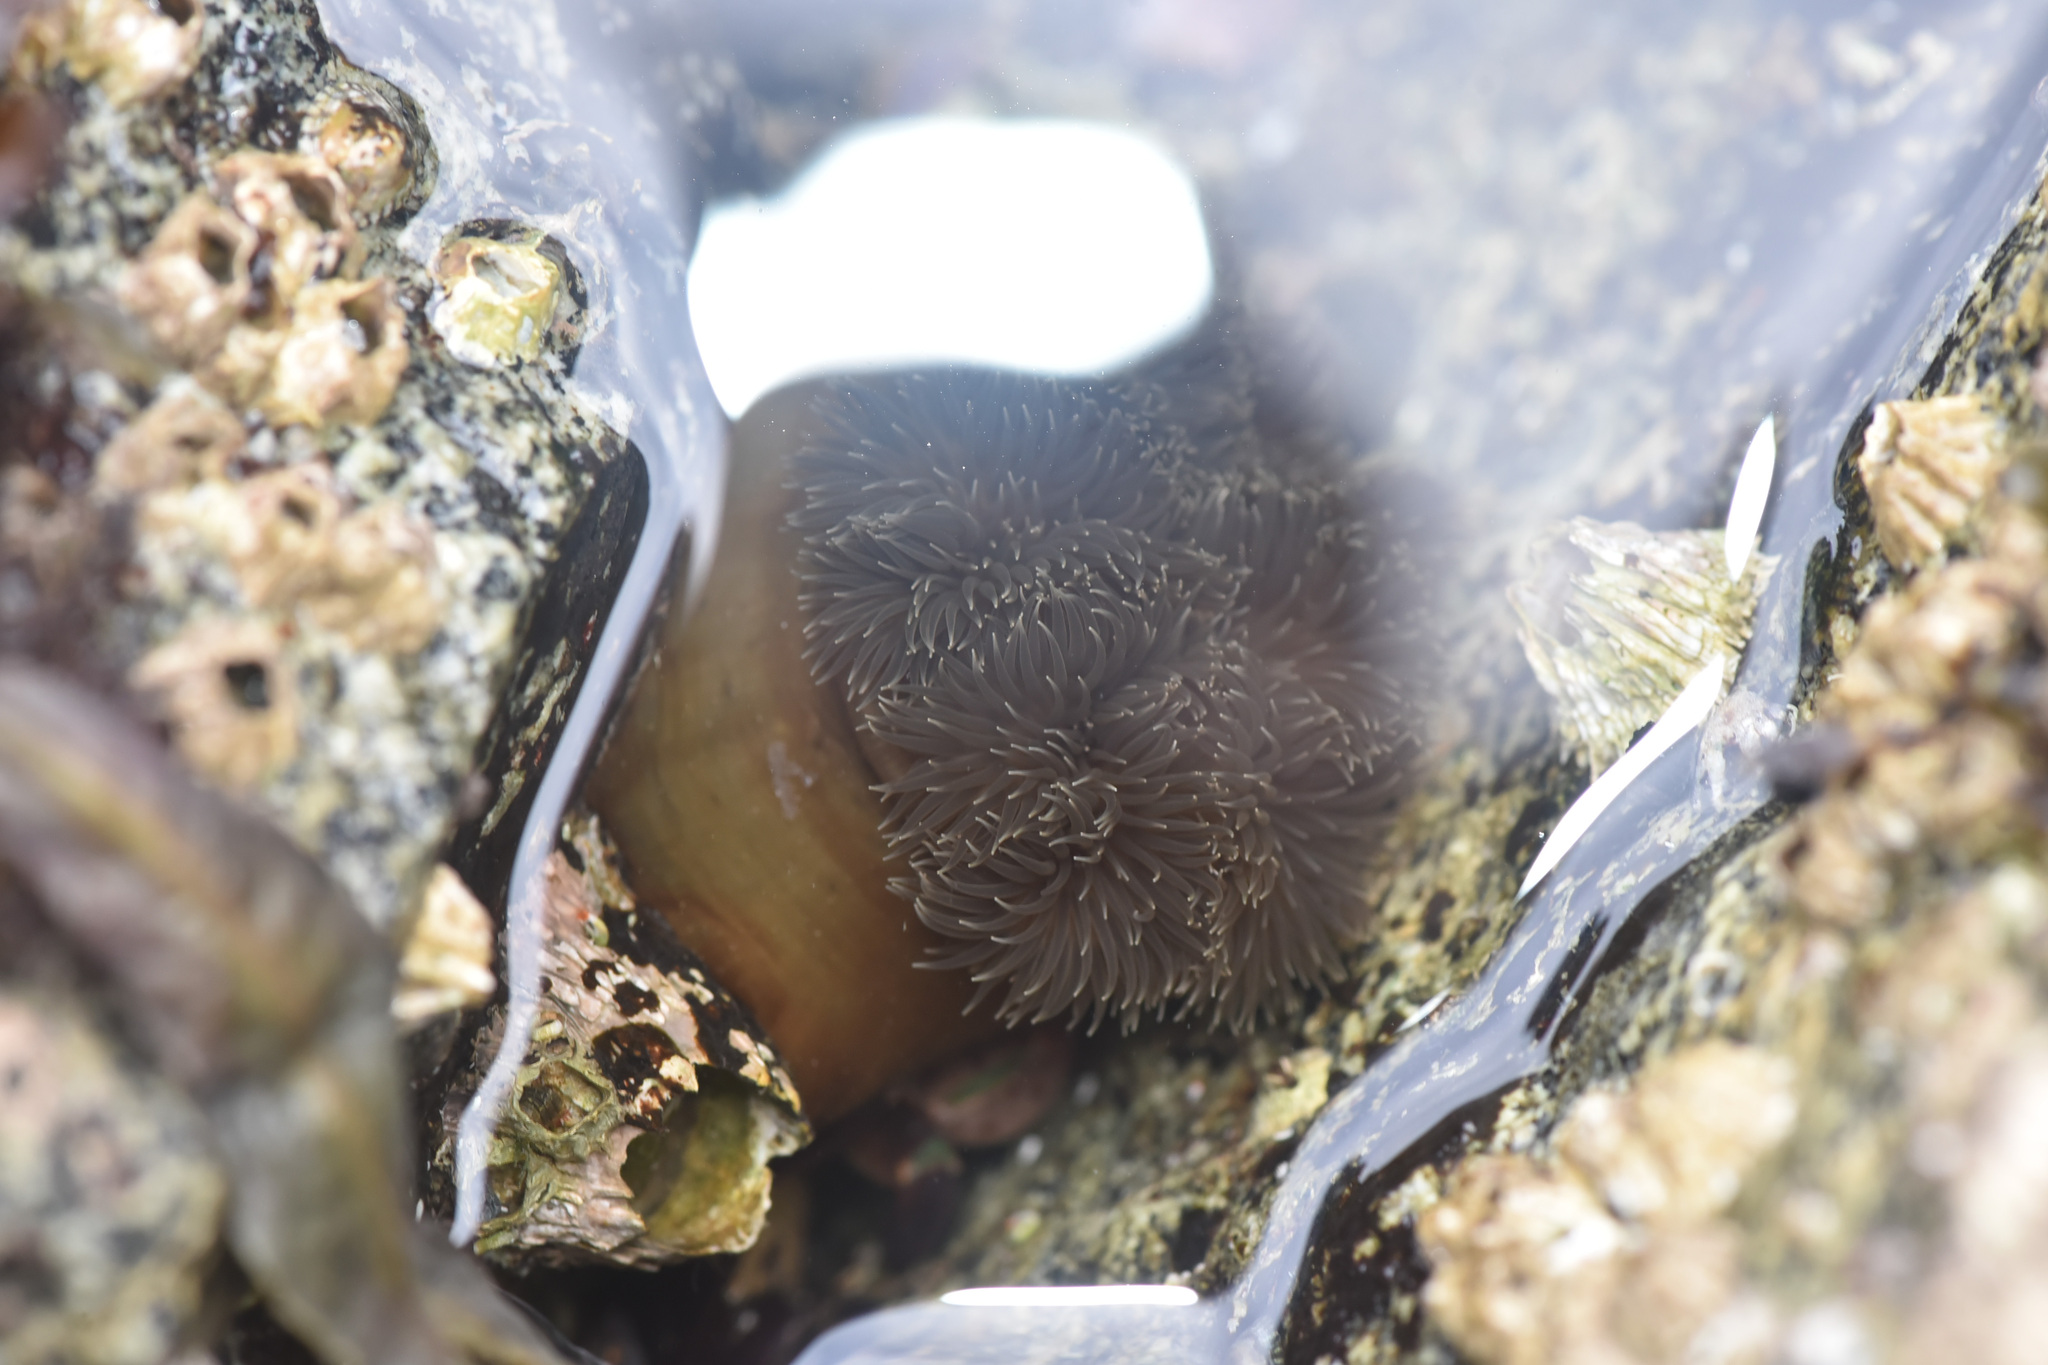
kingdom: Animalia
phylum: Cnidaria
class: Anthozoa
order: Actiniaria
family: Metridiidae
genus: Metridium
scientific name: Metridium senile
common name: Clonal plumose anemone
